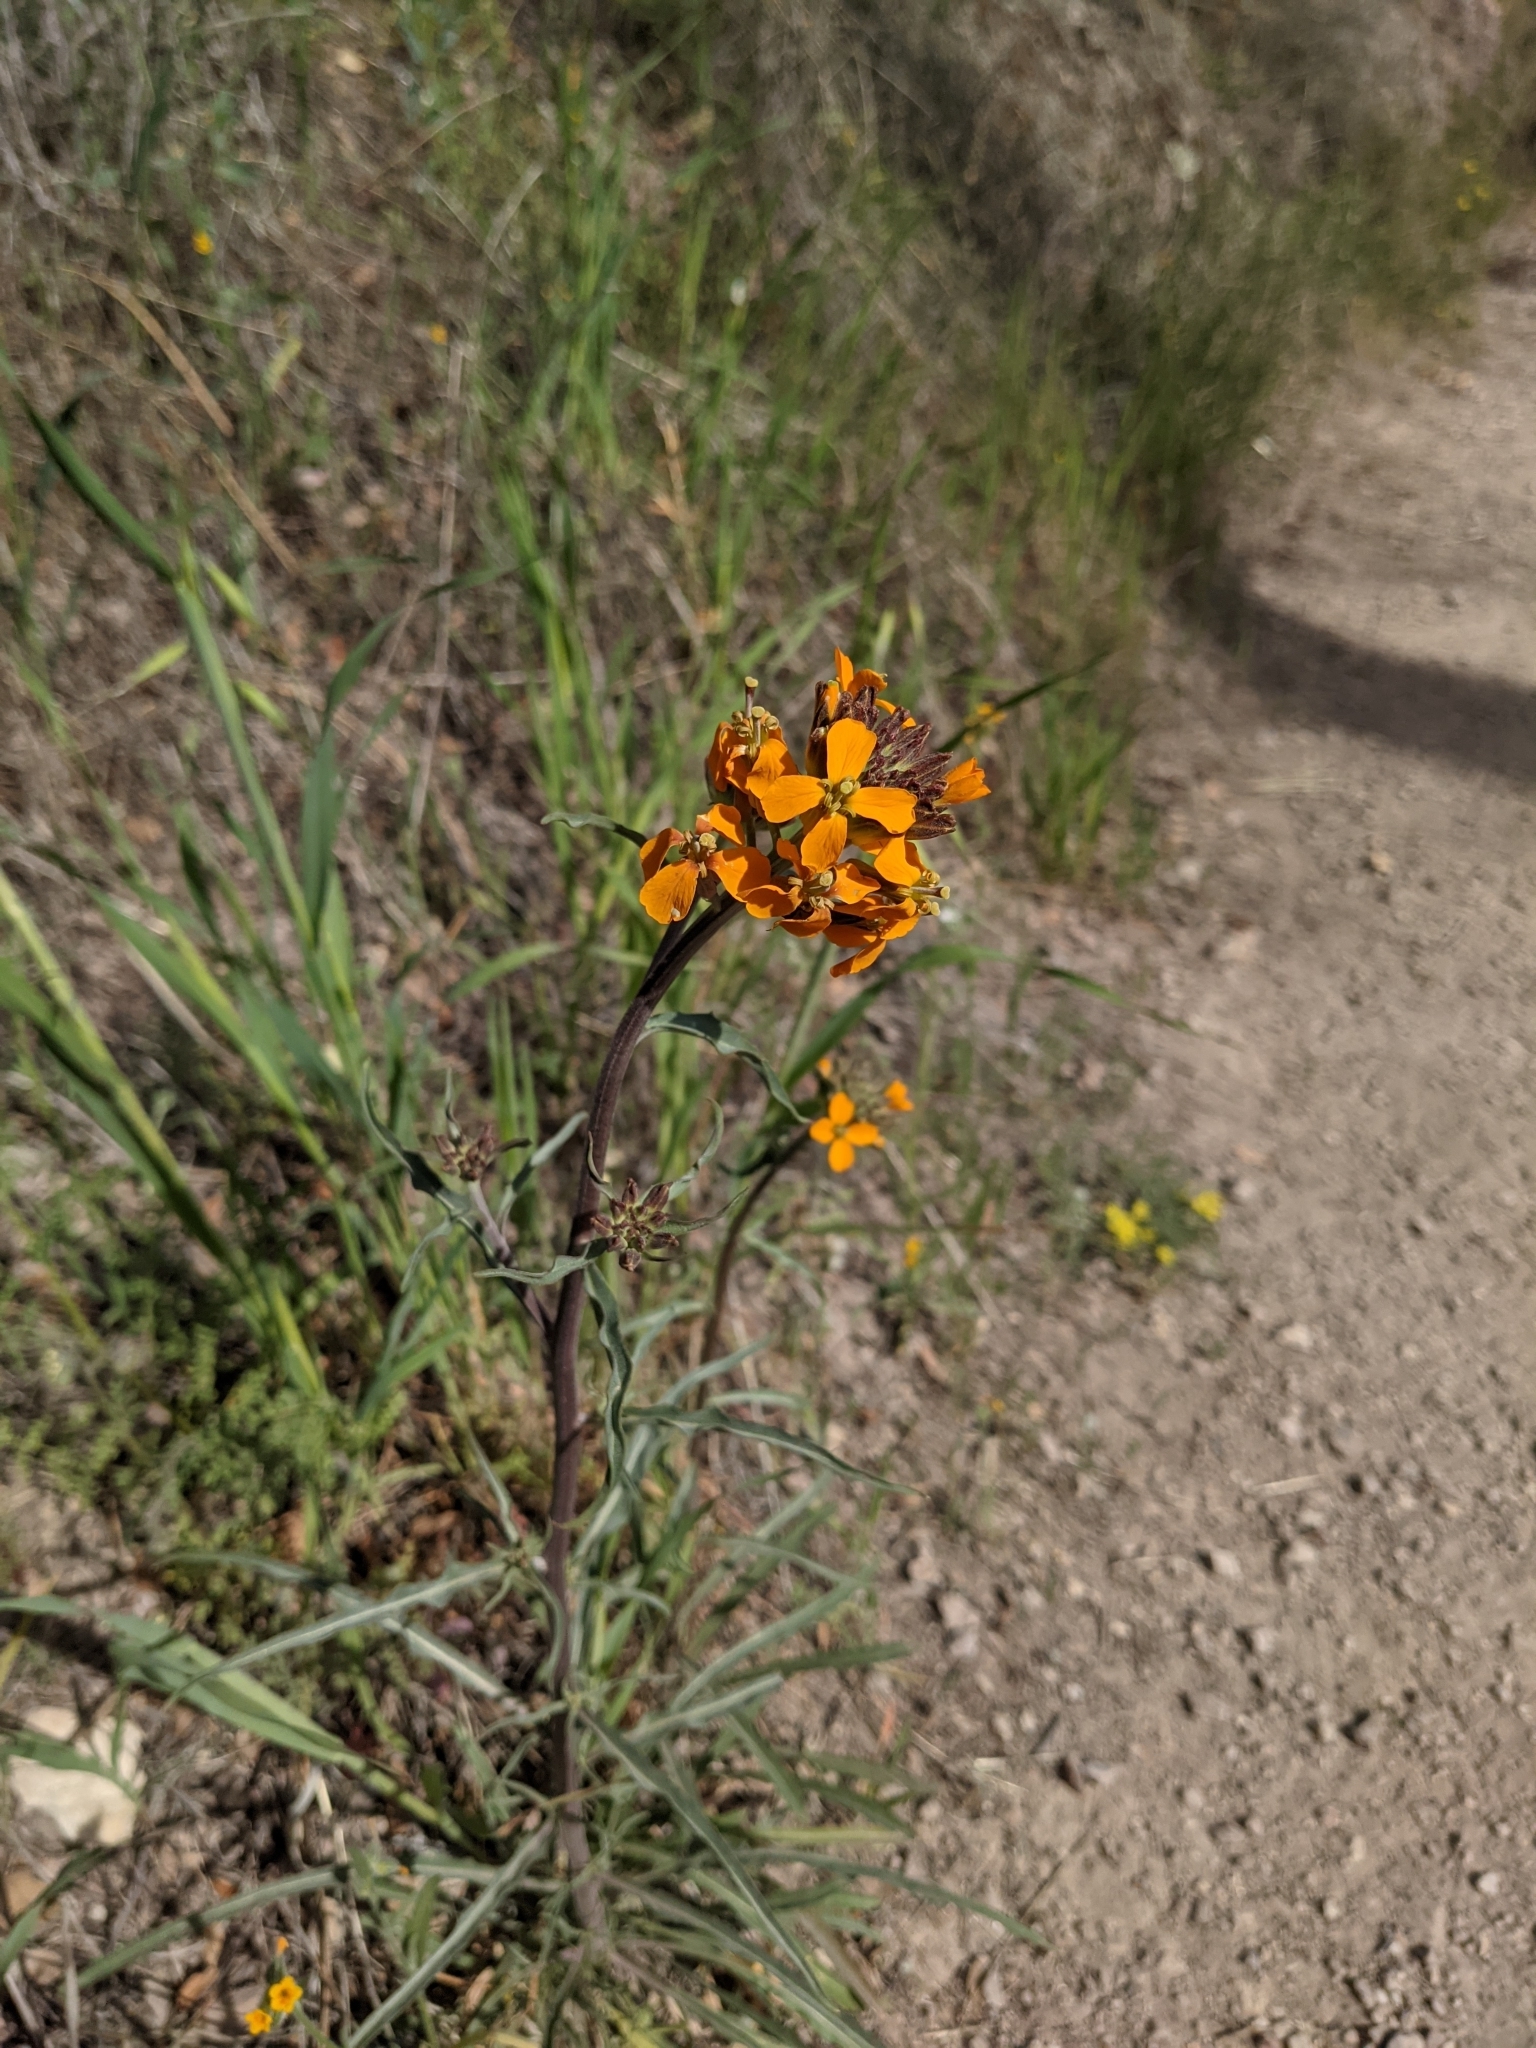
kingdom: Plantae
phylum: Tracheophyta
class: Magnoliopsida
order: Brassicales
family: Brassicaceae
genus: Erysimum
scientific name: Erysimum capitatum
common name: Western wallflower
